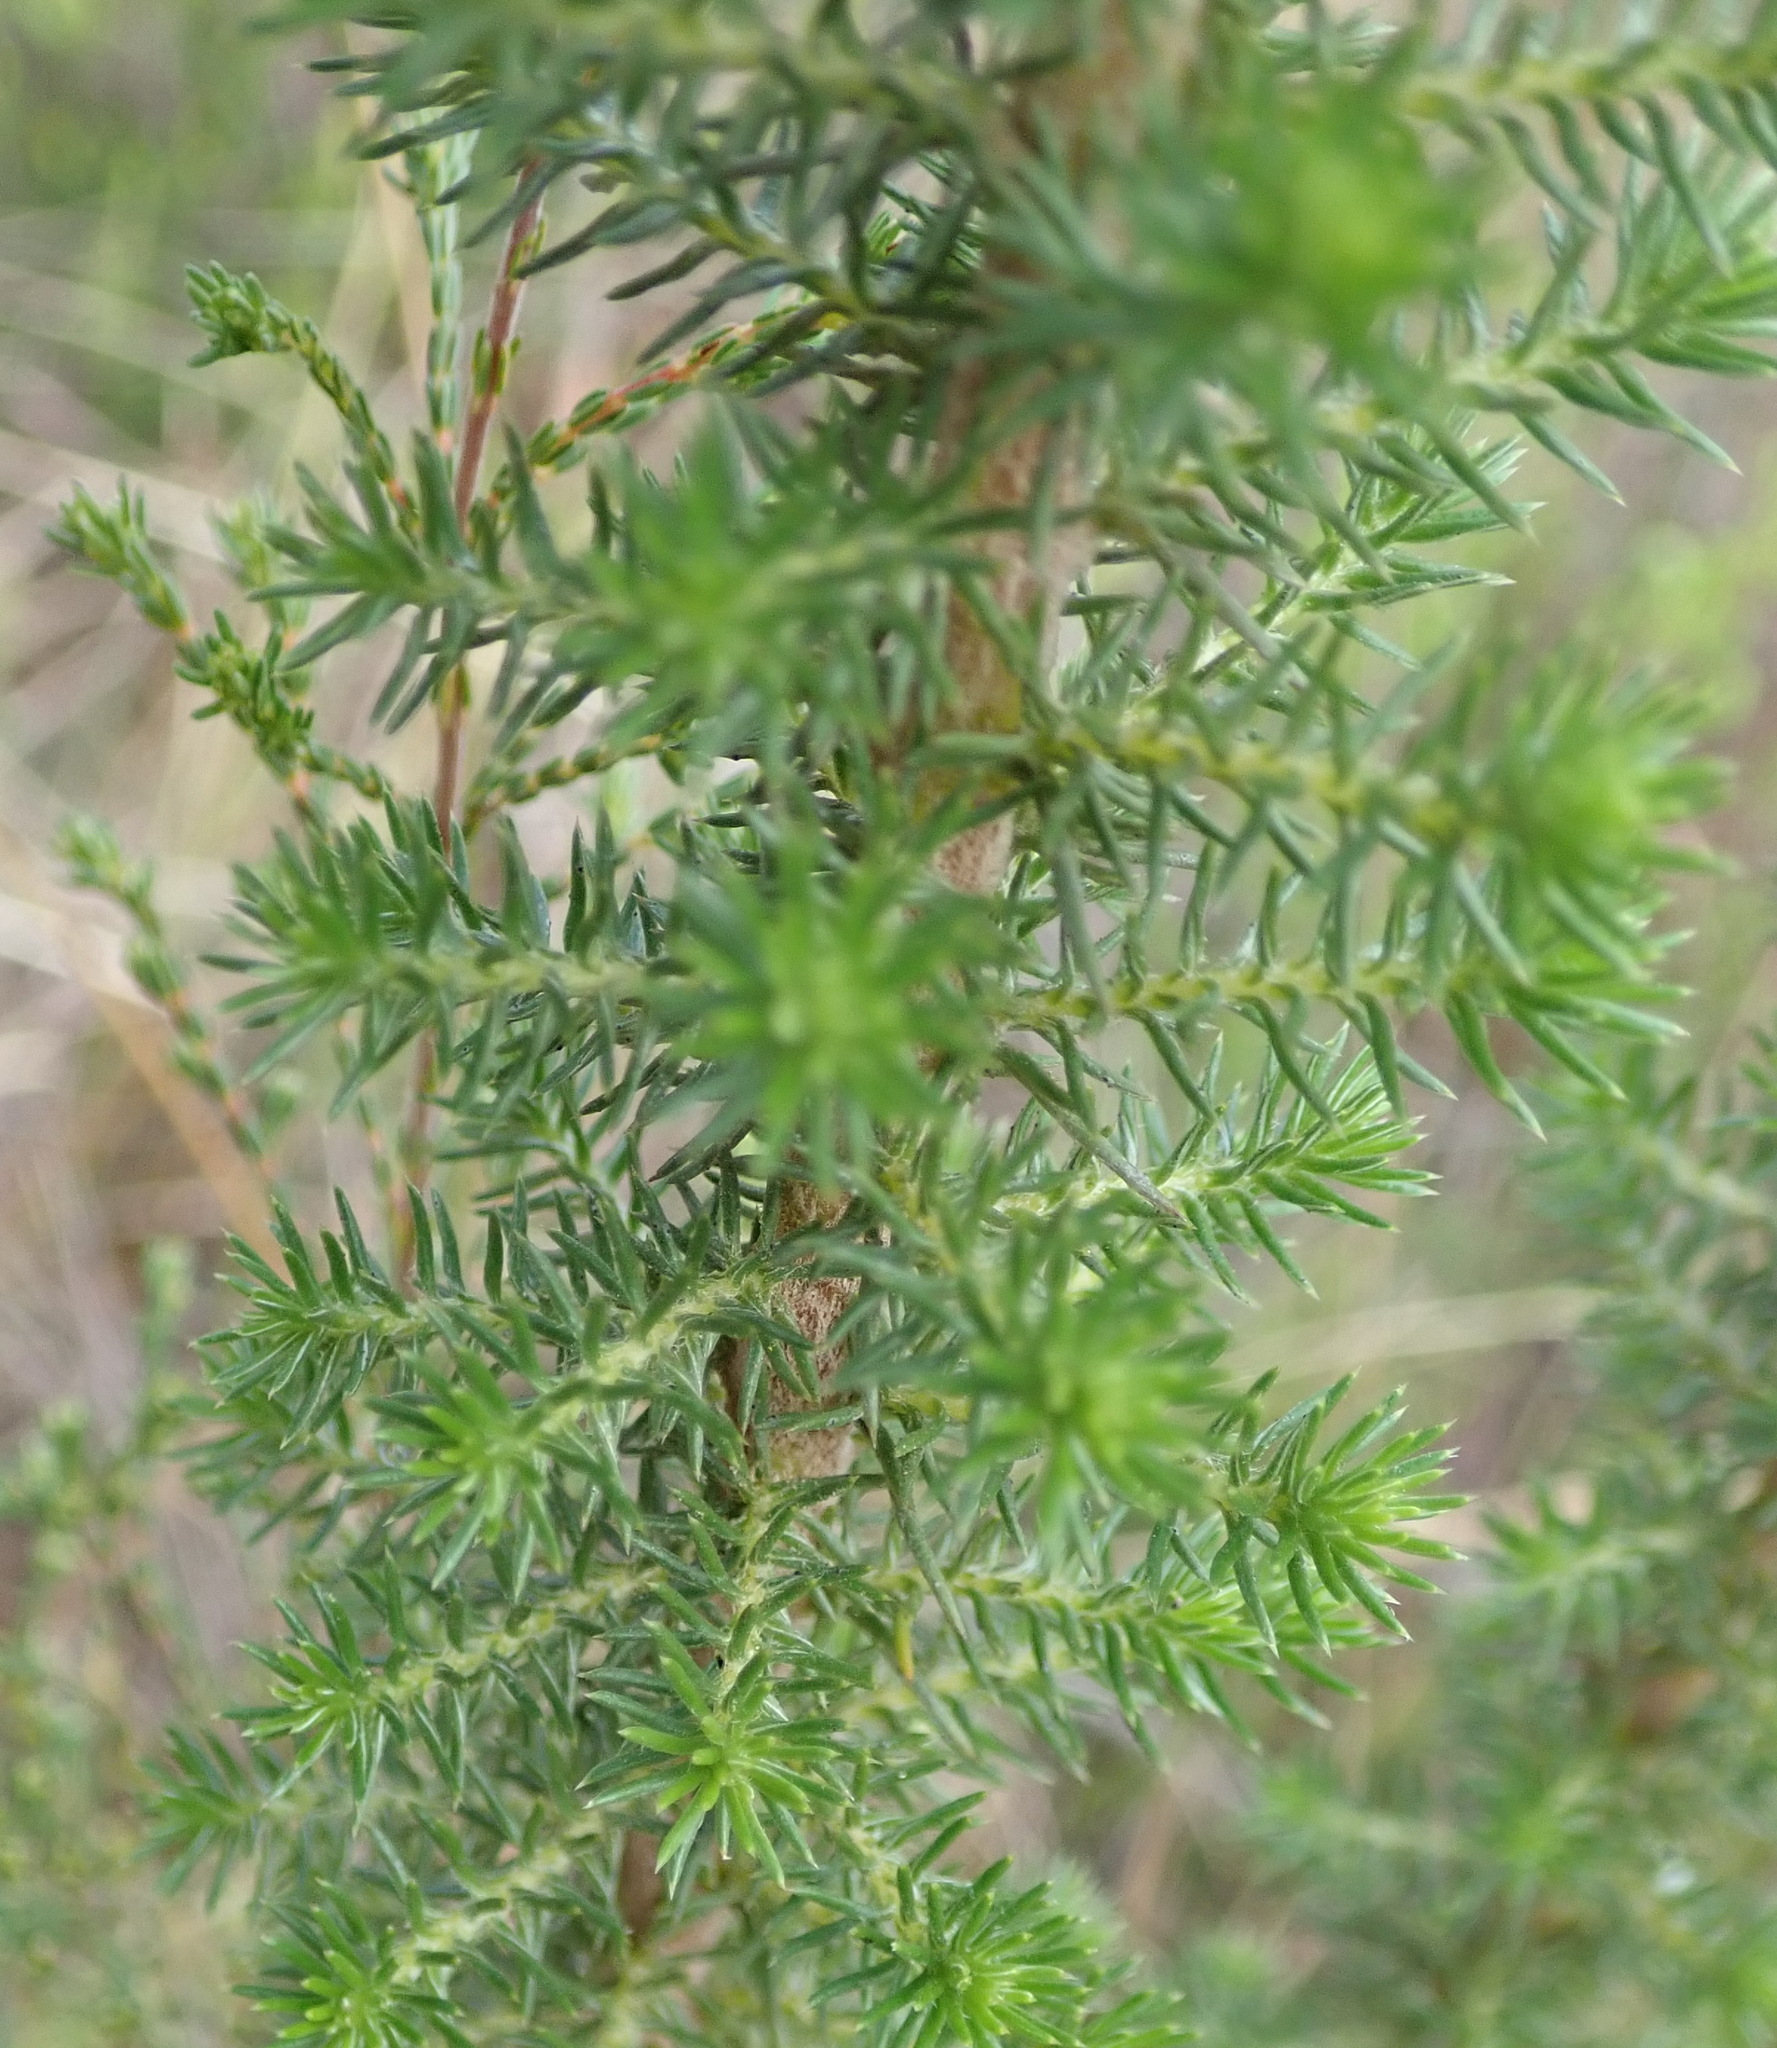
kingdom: Plantae
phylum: Tracheophyta
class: Magnoliopsida
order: Asterales
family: Asteraceae
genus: Stoebe
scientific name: Stoebe alopecuroides
